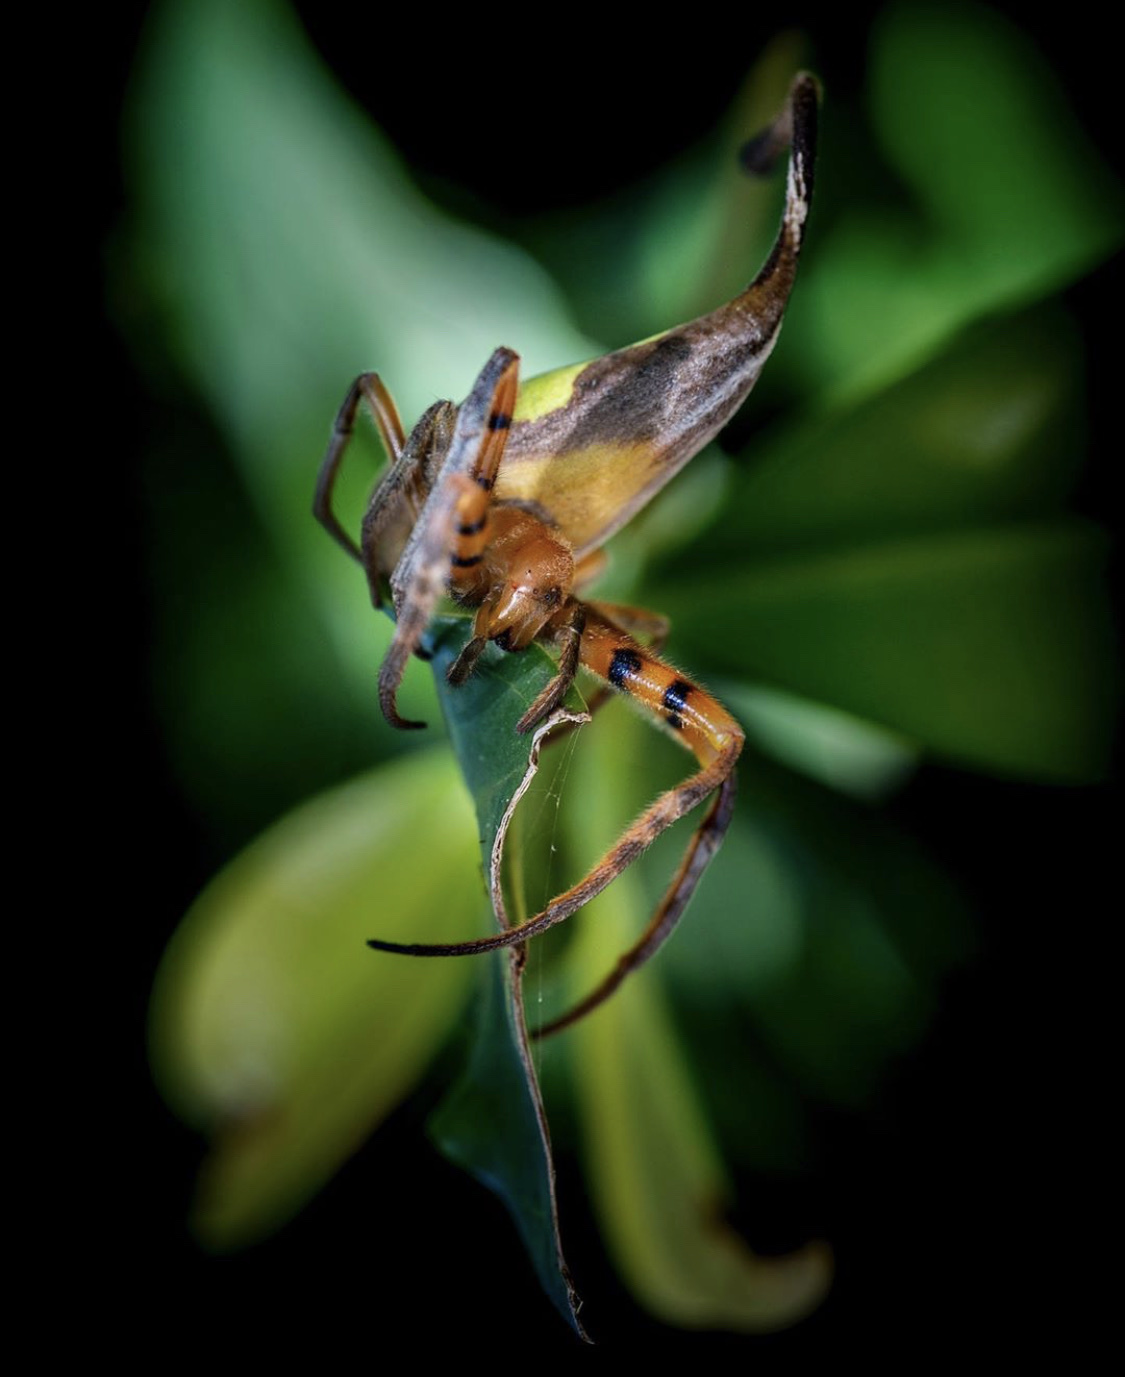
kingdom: Animalia
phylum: Arthropoda
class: Arachnida
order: Araneae
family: Araneidae
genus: Poltys
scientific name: Poltys idae
